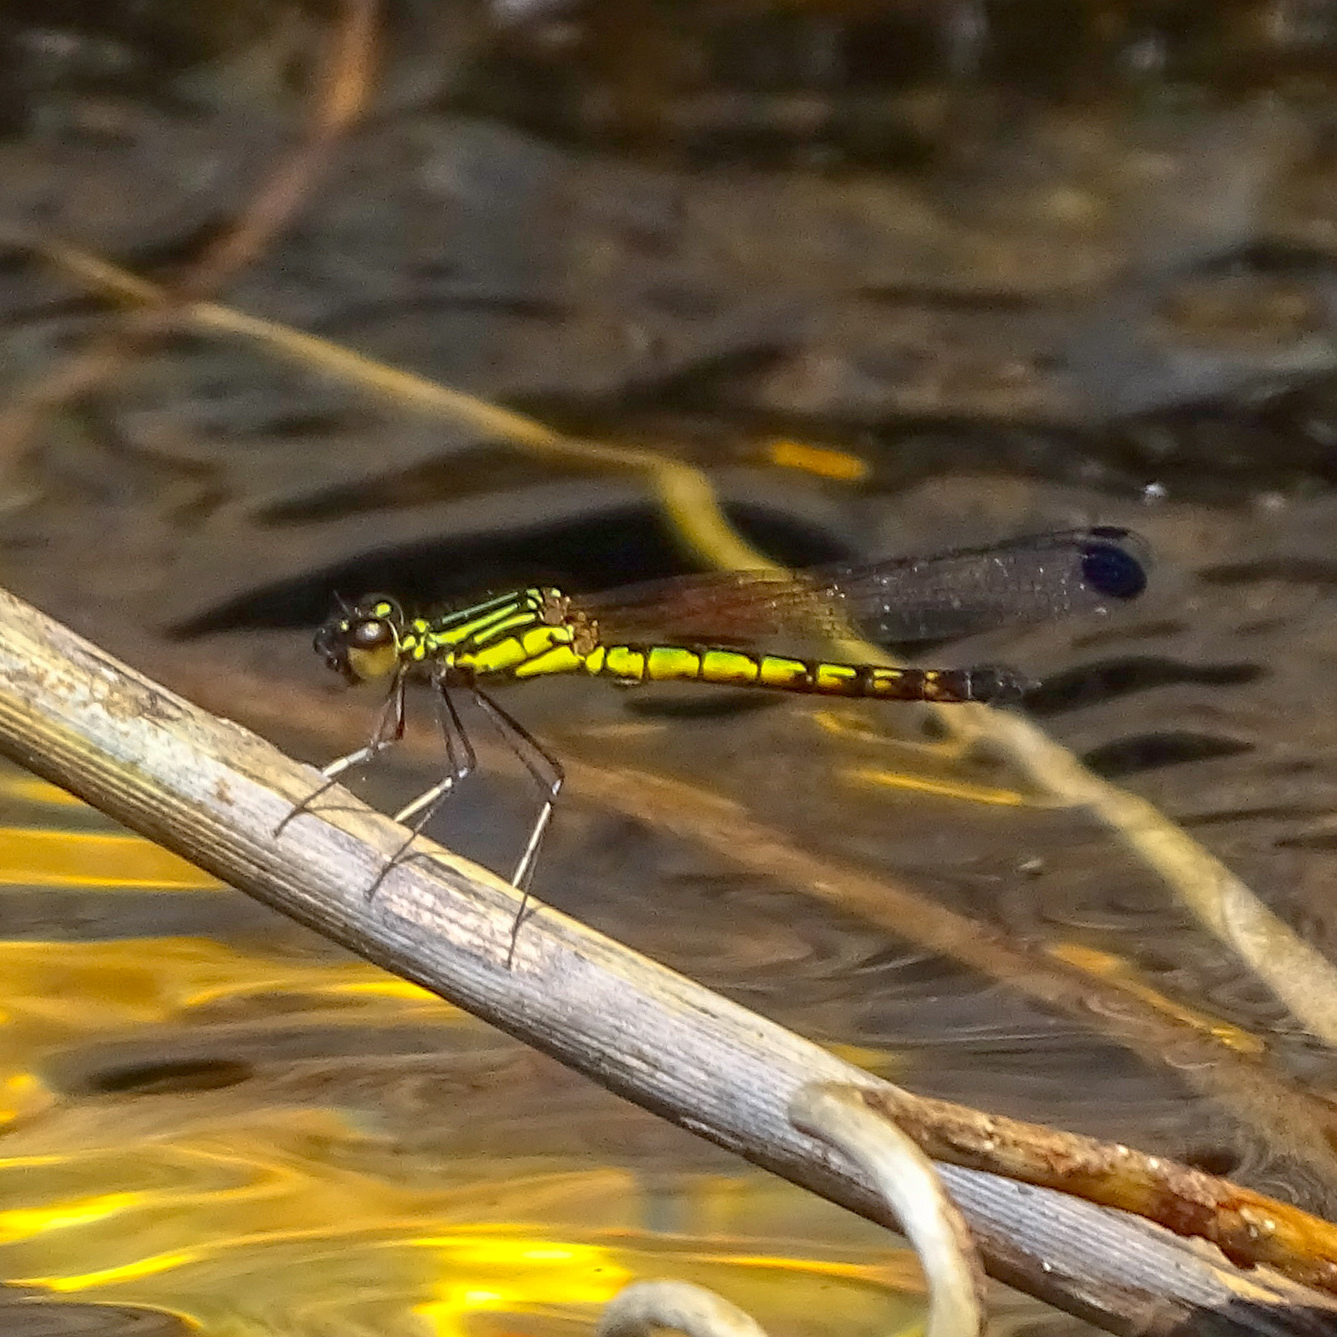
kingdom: Animalia
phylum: Arthropoda
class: Insecta
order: Odonata
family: Chlorocyphidae
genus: Libellago
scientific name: Libellago indica
